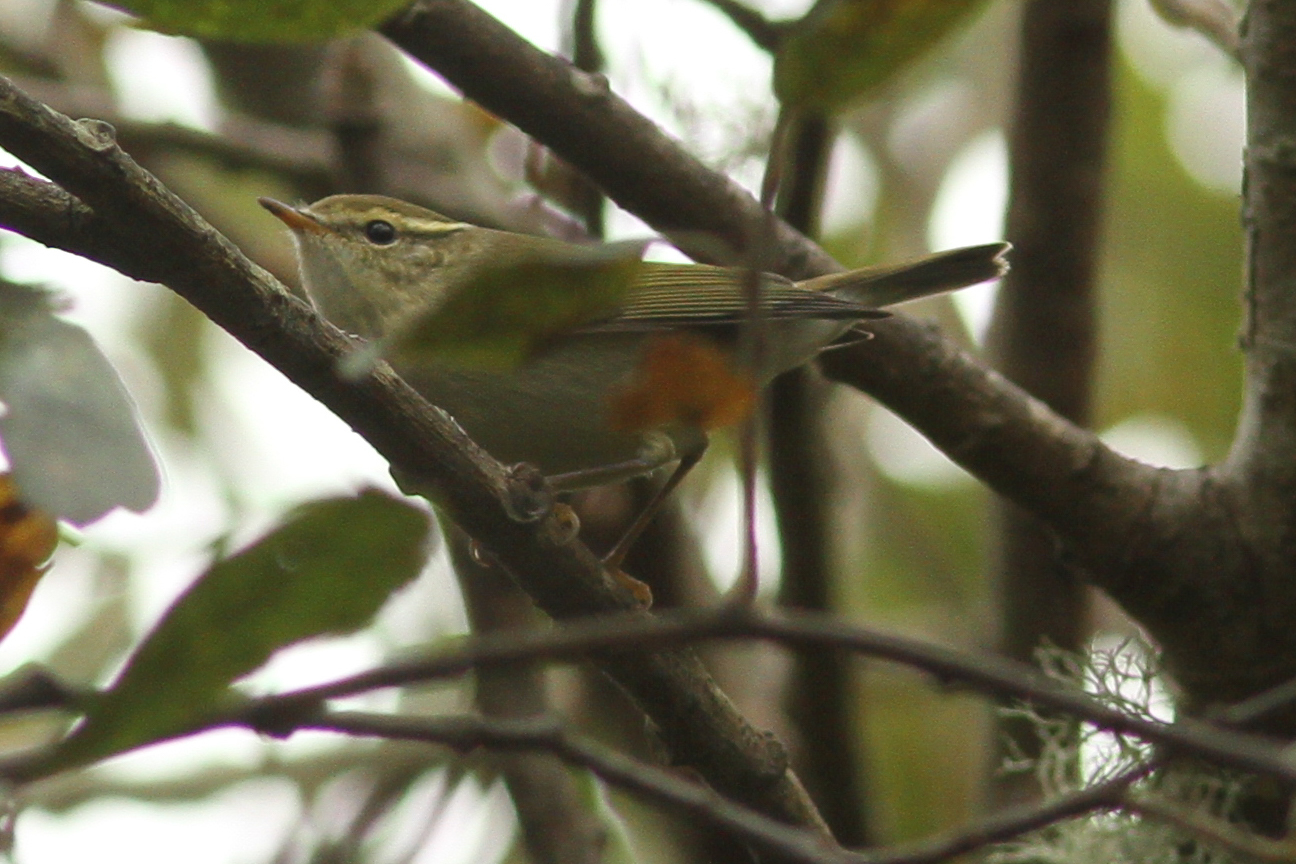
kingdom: Animalia
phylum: Chordata
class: Aves
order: Passeriformes
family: Phylloscopidae
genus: Phylloscopus
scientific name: Phylloscopus inornatus
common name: Yellow-browed warbler
